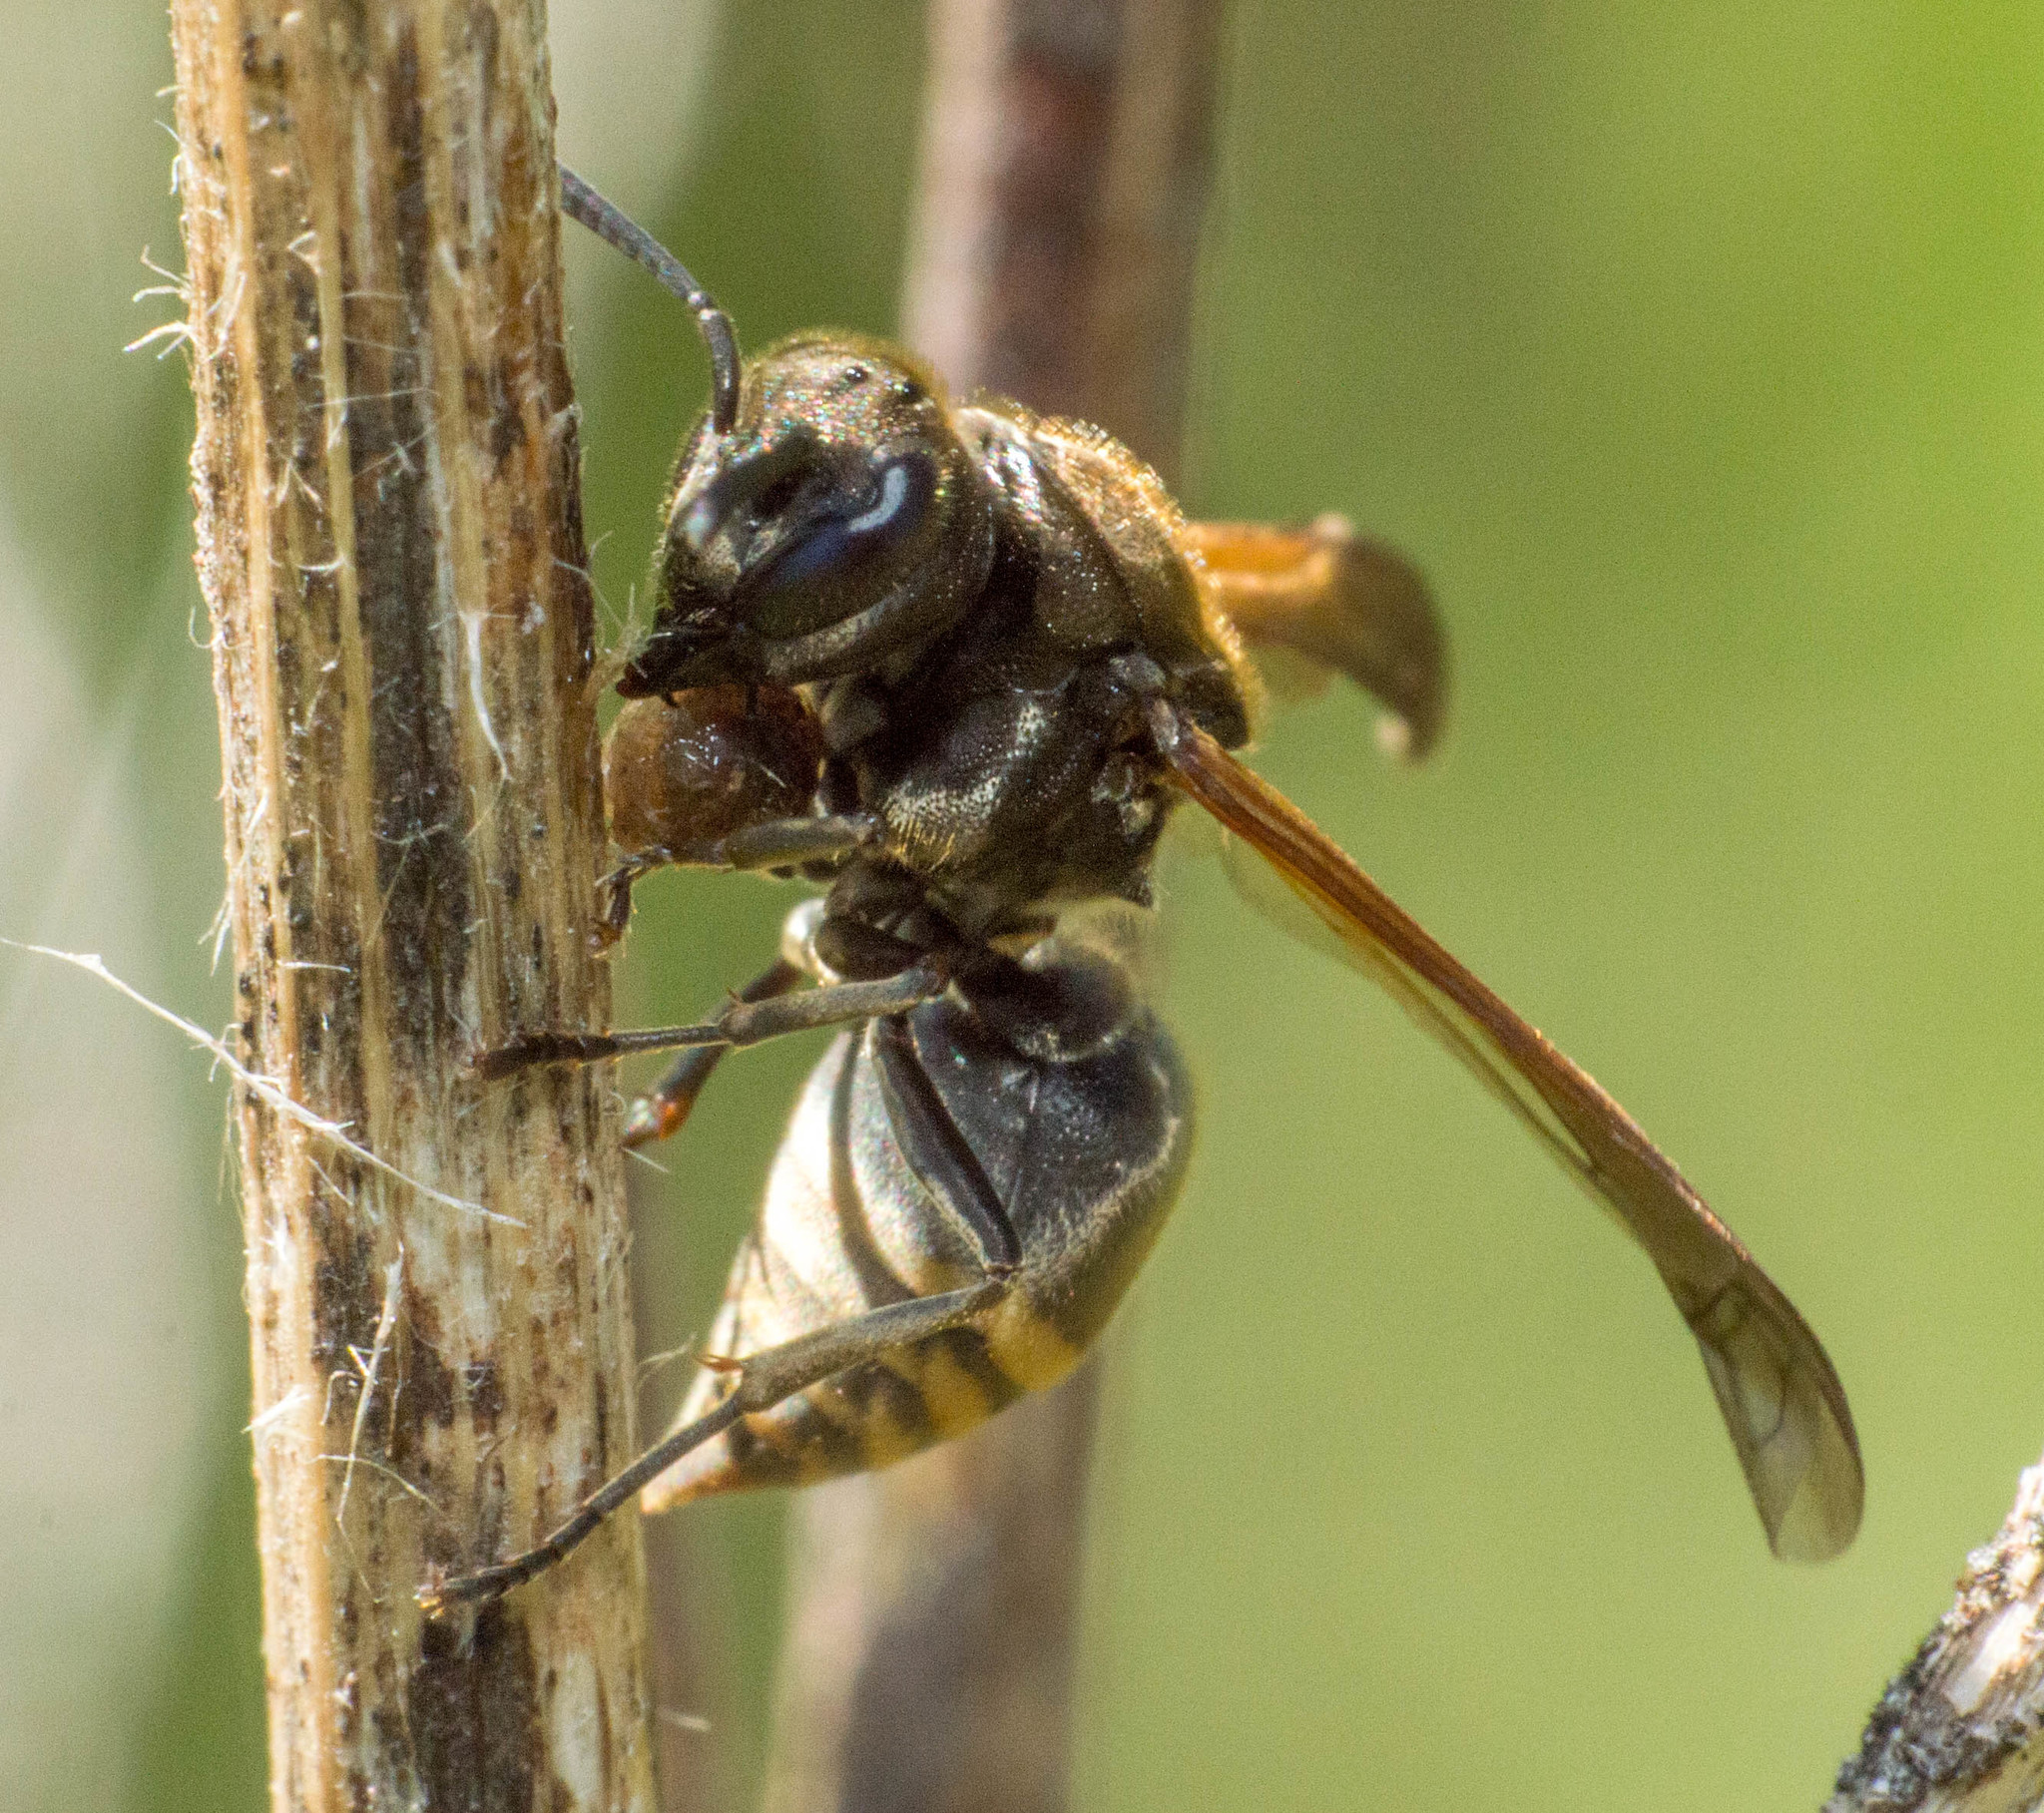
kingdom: Animalia
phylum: Arthropoda
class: Insecta
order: Hymenoptera
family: Vespidae
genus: Brachygastra
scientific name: Brachygastra lecheguana
